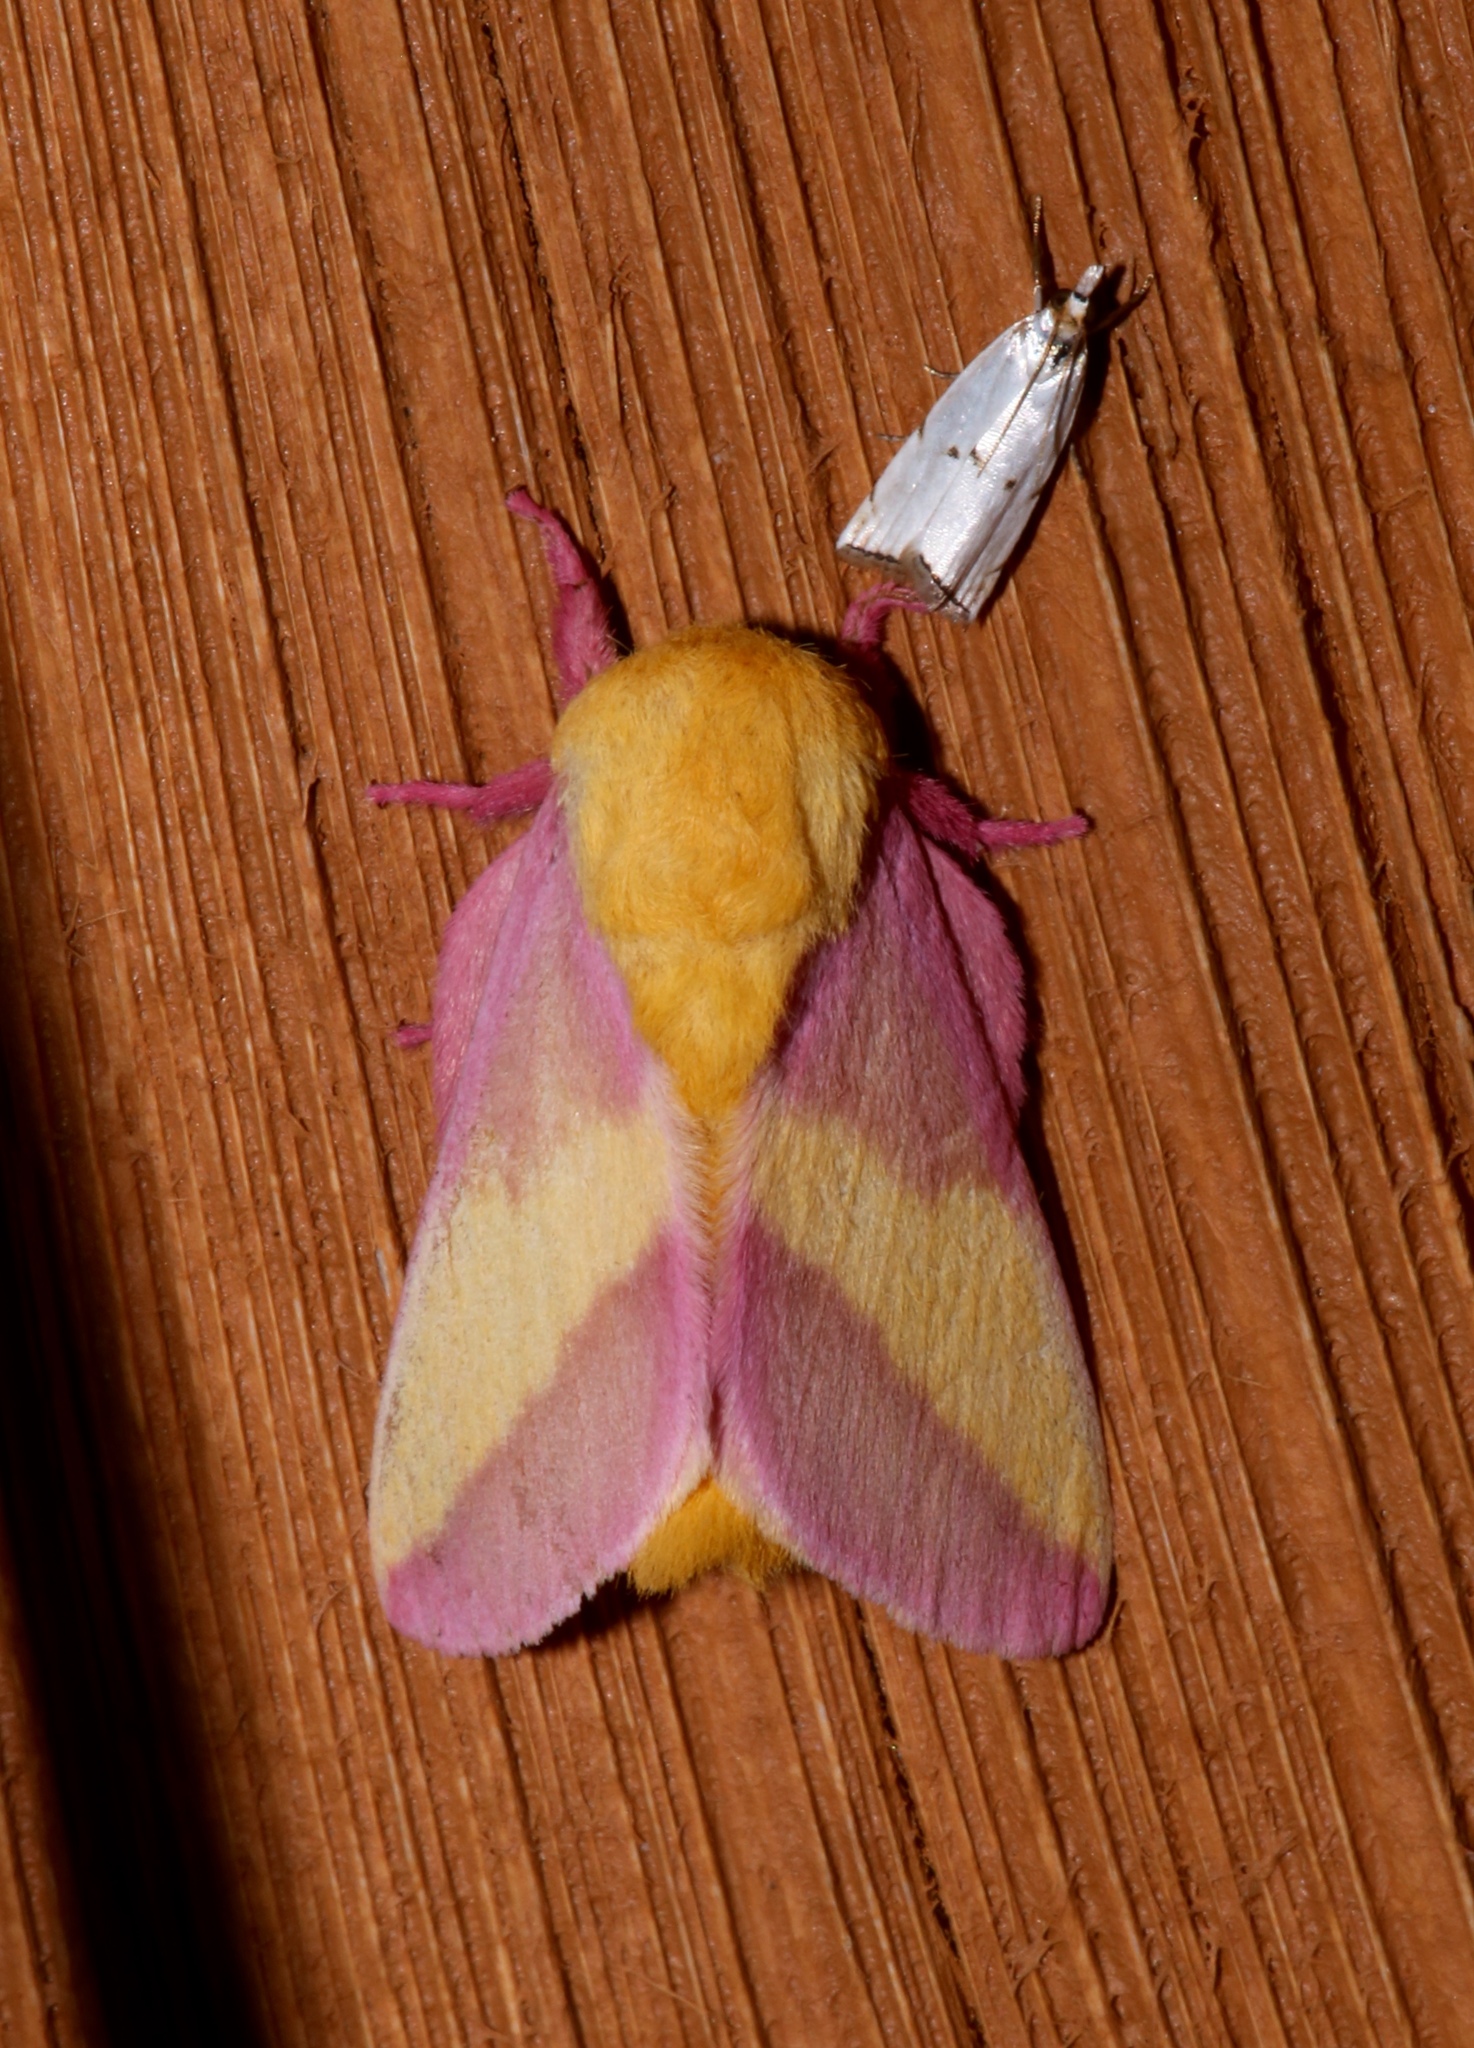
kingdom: Animalia
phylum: Arthropoda
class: Insecta
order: Lepidoptera
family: Saturniidae
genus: Dryocampa
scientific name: Dryocampa rubicunda
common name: Rosy maple moth
